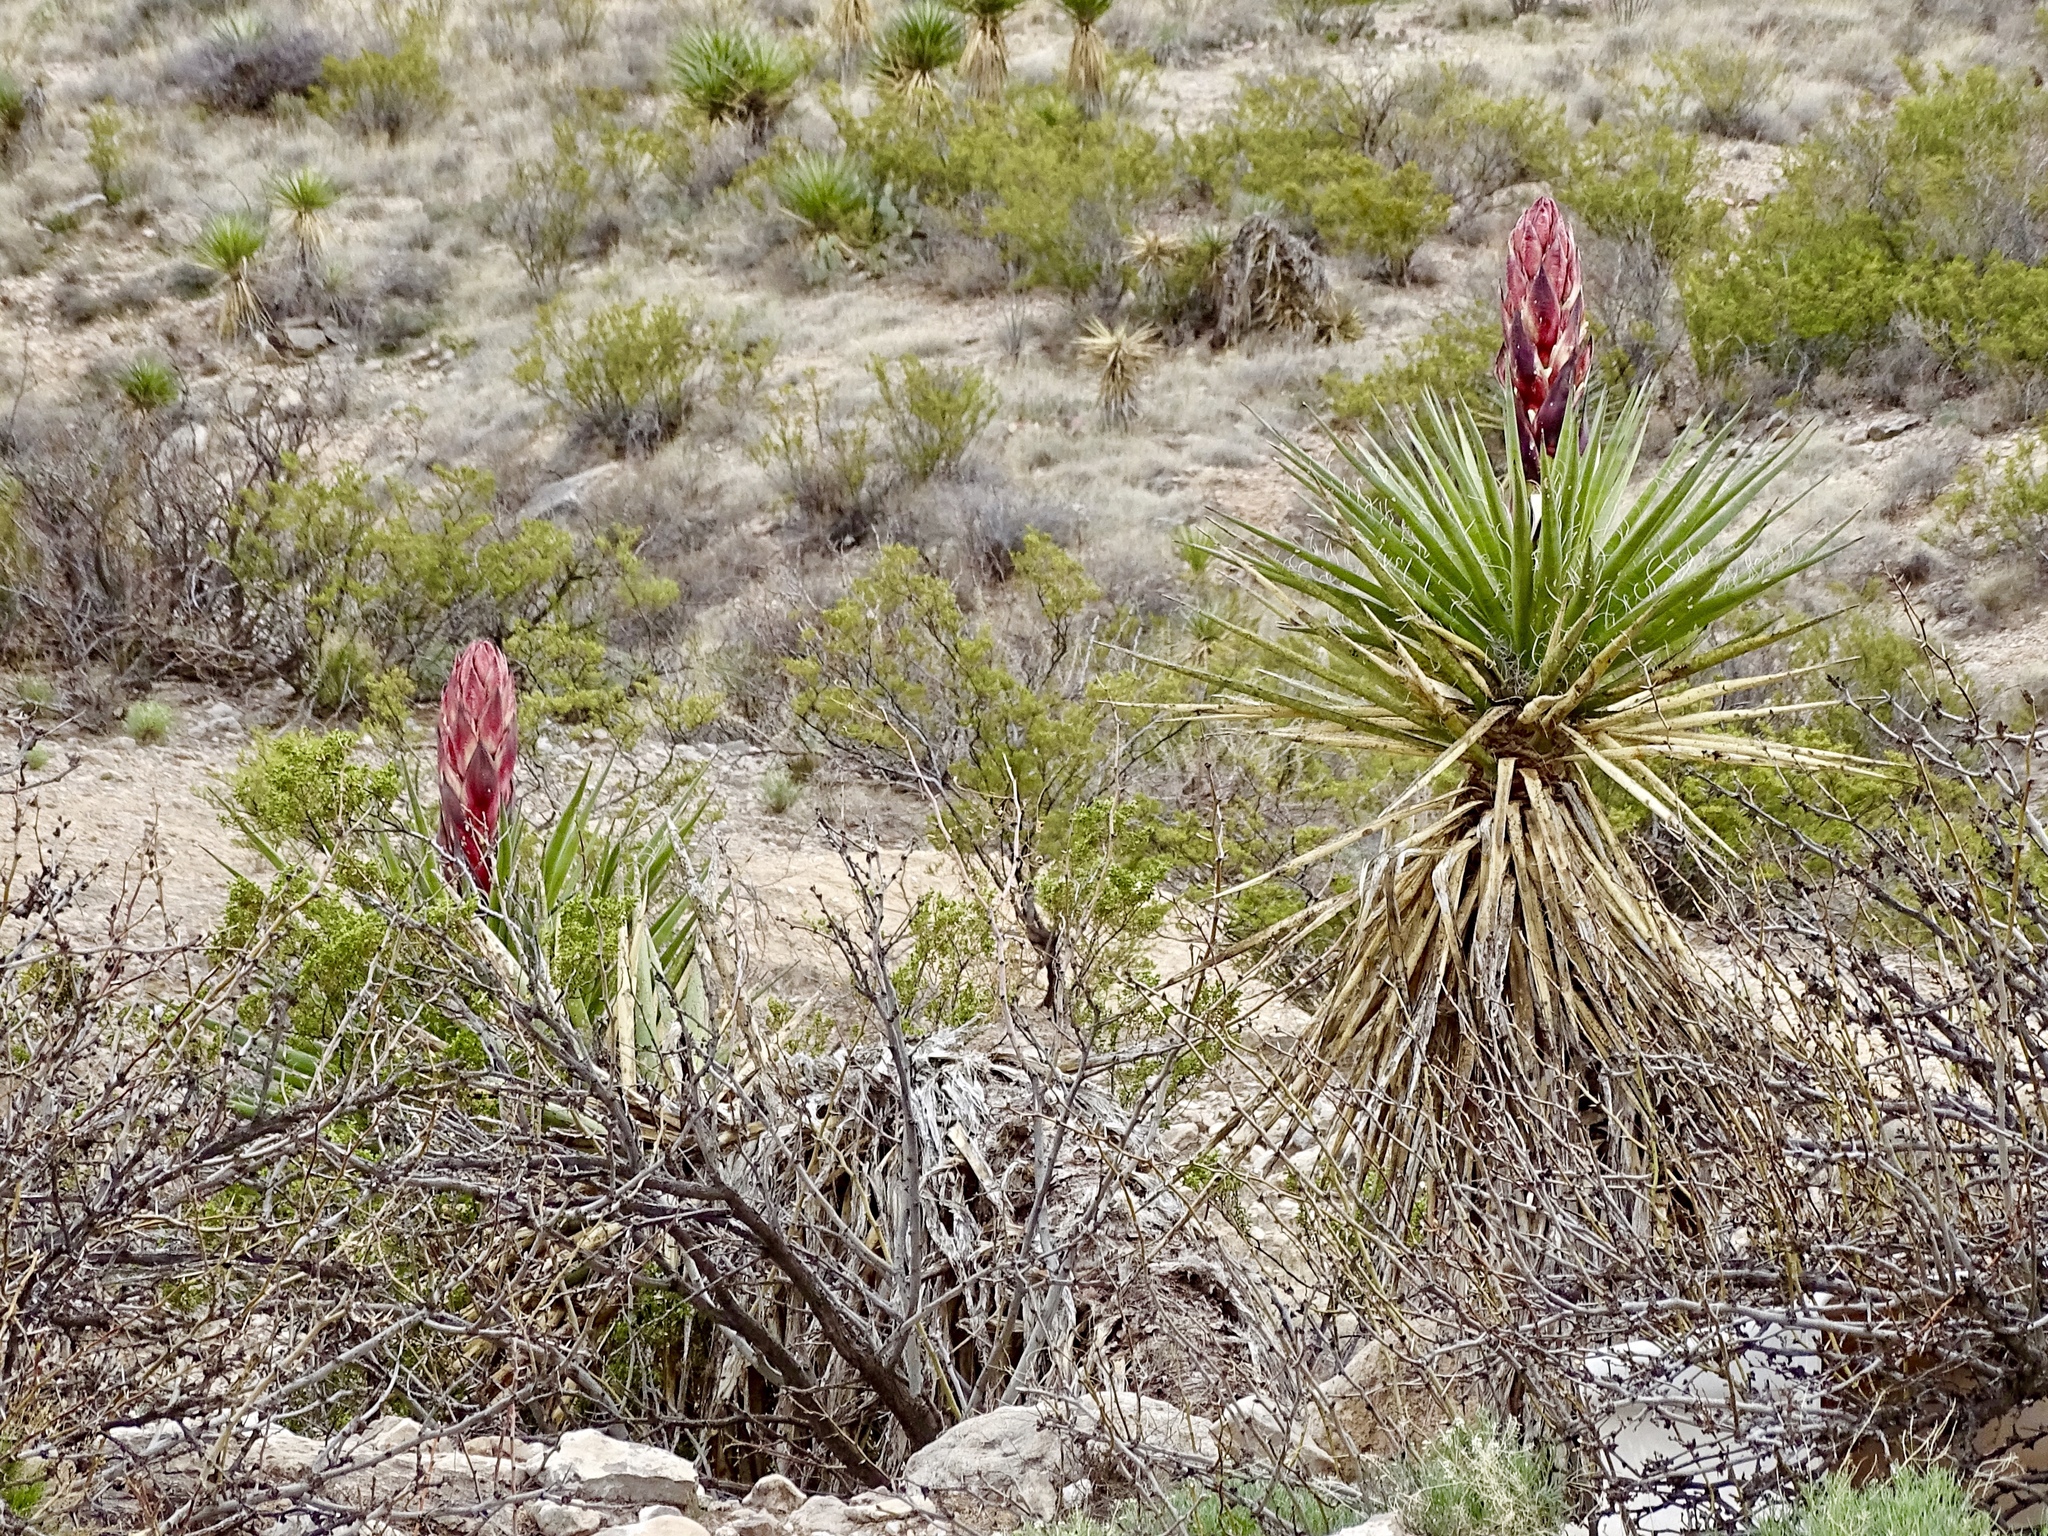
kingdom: Plantae
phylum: Tracheophyta
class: Liliopsida
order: Asparagales
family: Asparagaceae
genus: Yucca
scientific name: Yucca treculiana
